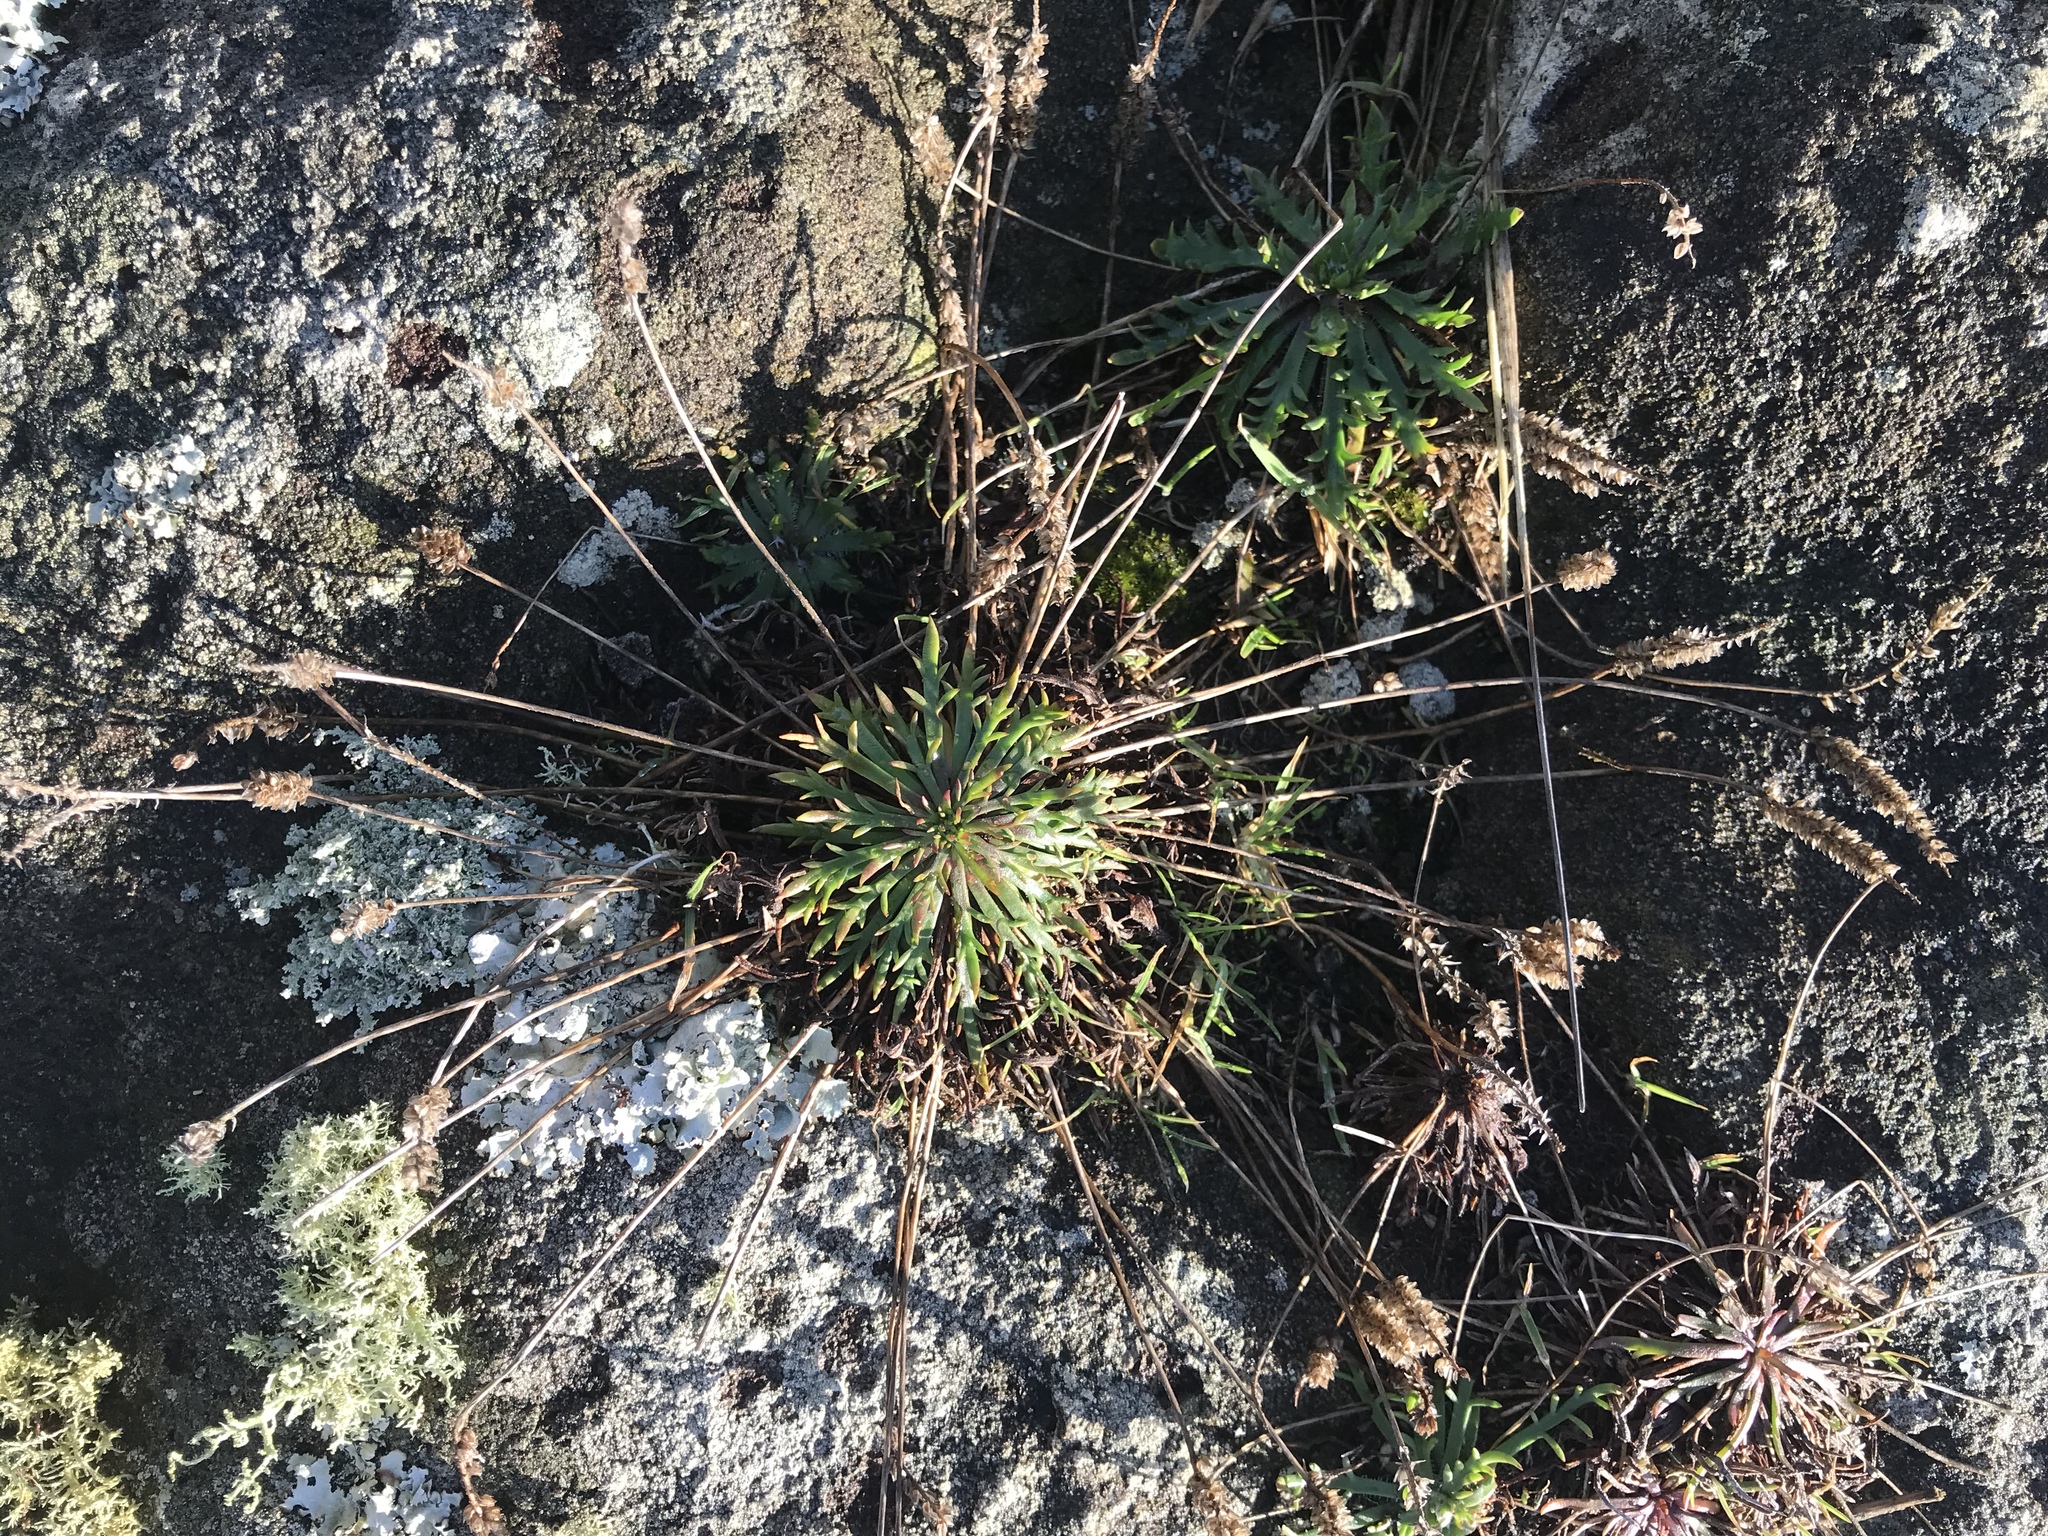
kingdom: Plantae
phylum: Tracheophyta
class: Magnoliopsida
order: Lamiales
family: Plantaginaceae
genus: Plantago
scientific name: Plantago coronopus
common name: Buck's-horn plantain
